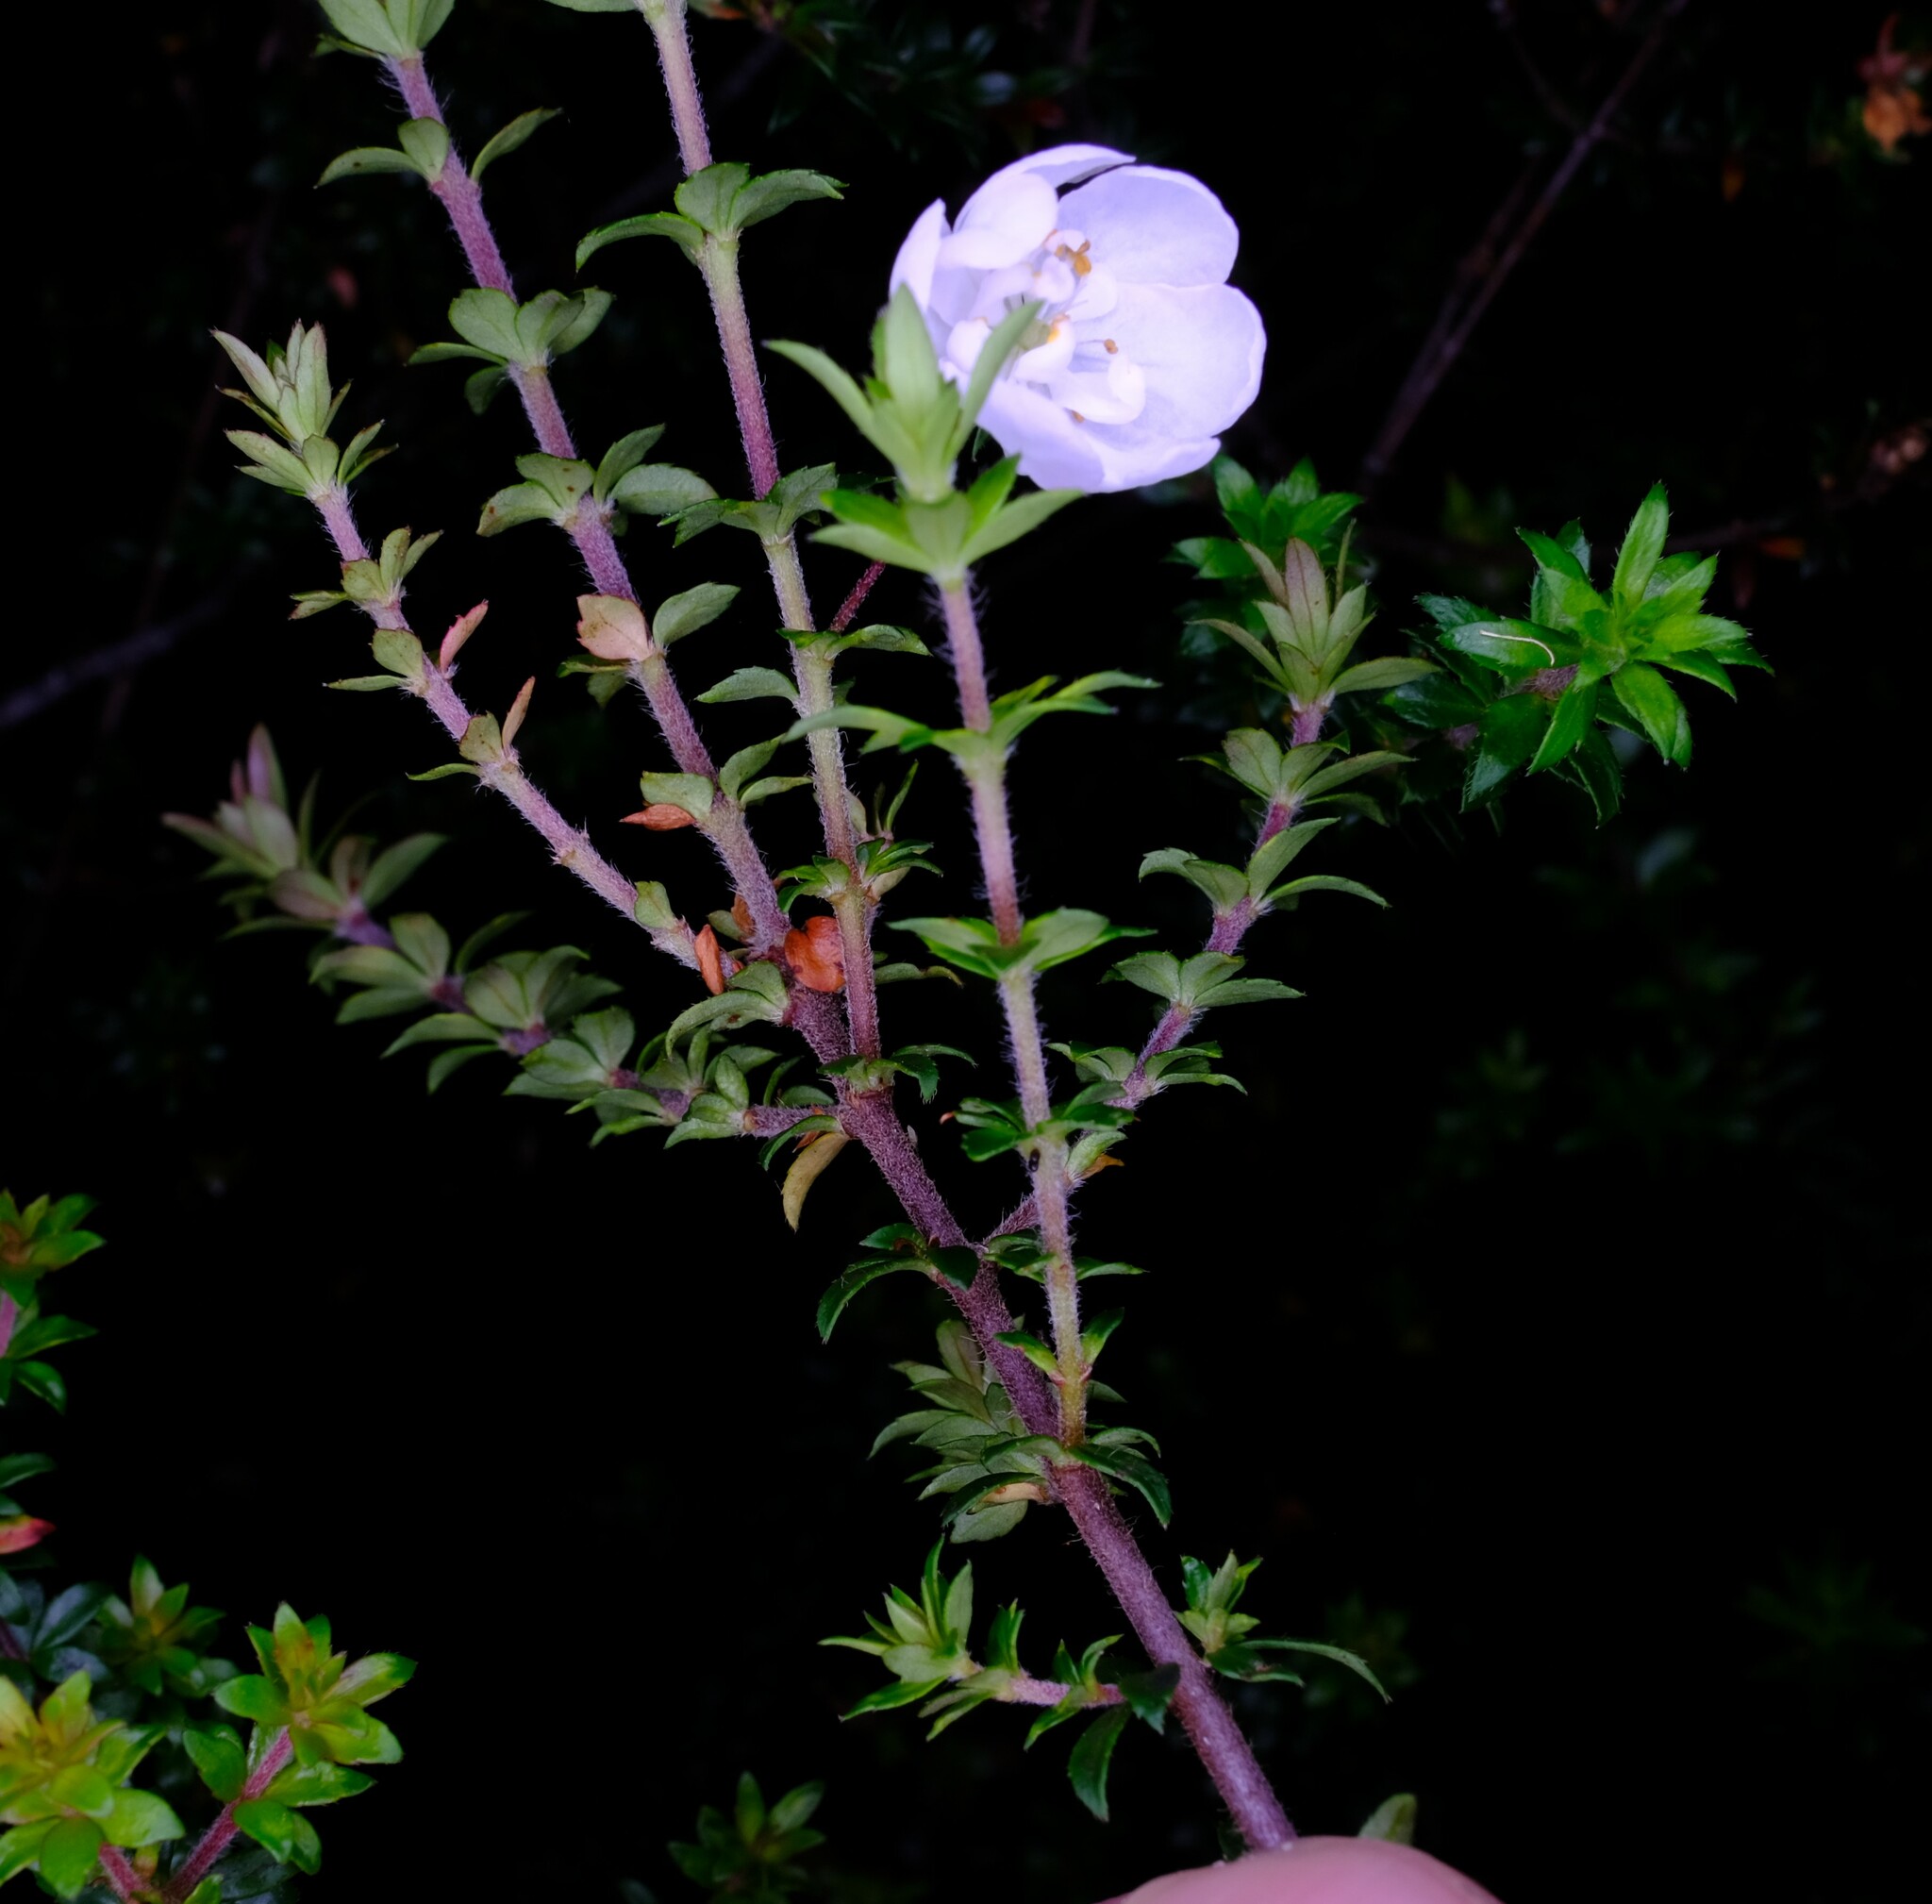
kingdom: Plantae
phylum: Tracheophyta
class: Magnoliopsida
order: Oxalidales
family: Cunoniaceae
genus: Bauera
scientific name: Bauera rubioides
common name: River-rose
